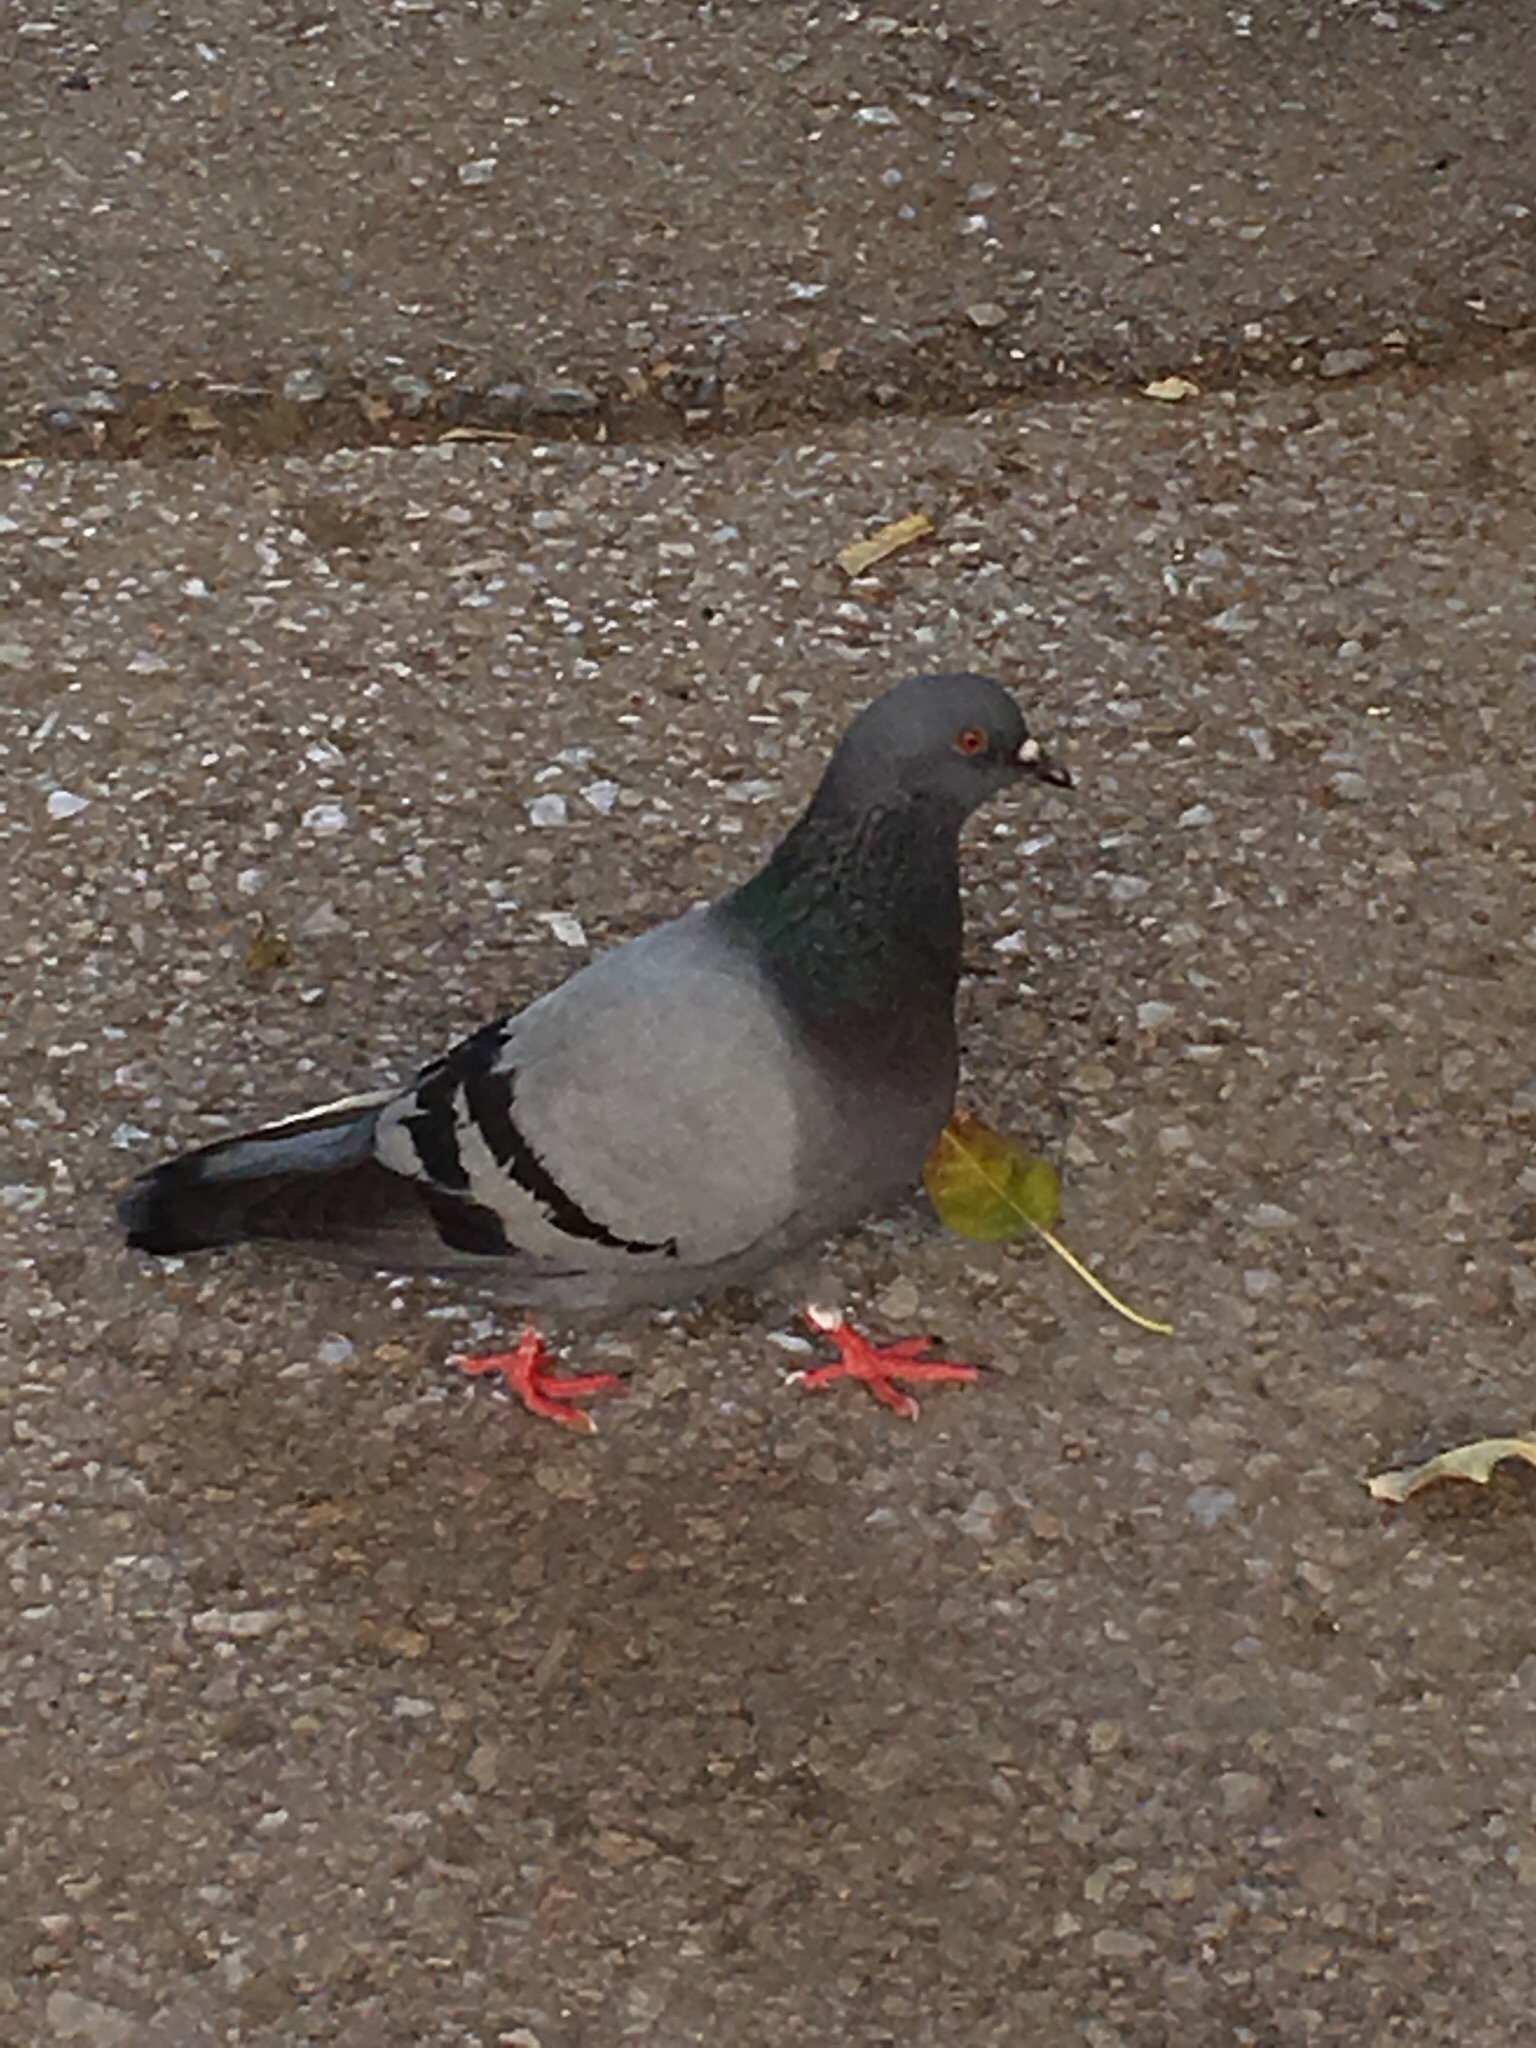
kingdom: Animalia
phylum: Chordata
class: Aves
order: Columbiformes
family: Columbidae
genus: Columba
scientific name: Columba livia
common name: Rock pigeon
